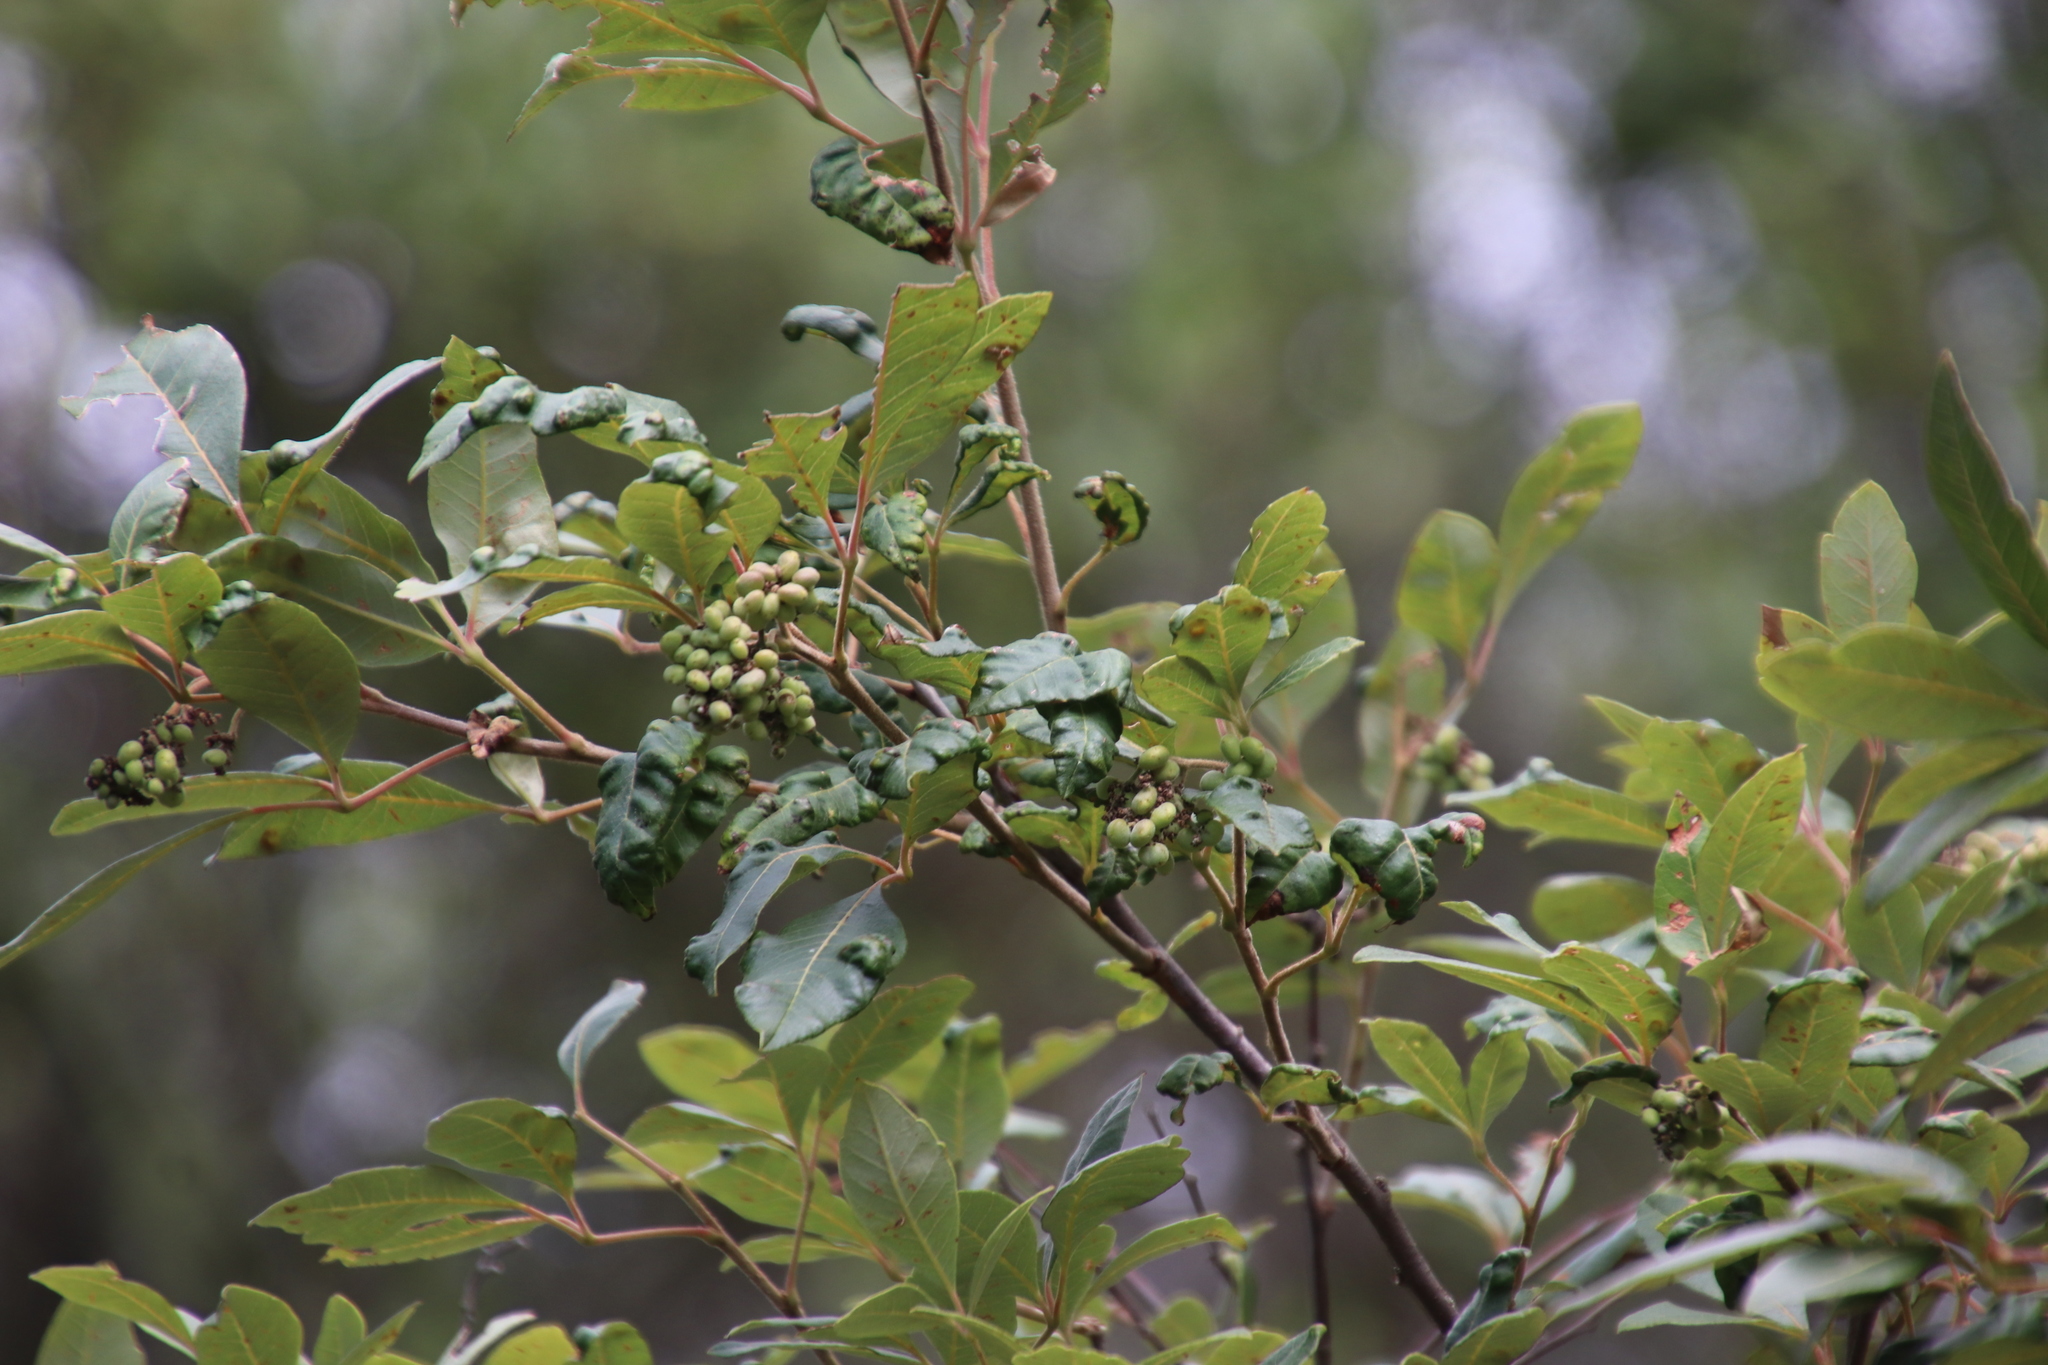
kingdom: Plantae
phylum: Tracheophyta
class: Magnoliopsida
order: Sapindales
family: Anacardiaceae
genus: Searsia
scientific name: Searsia tomentosa
